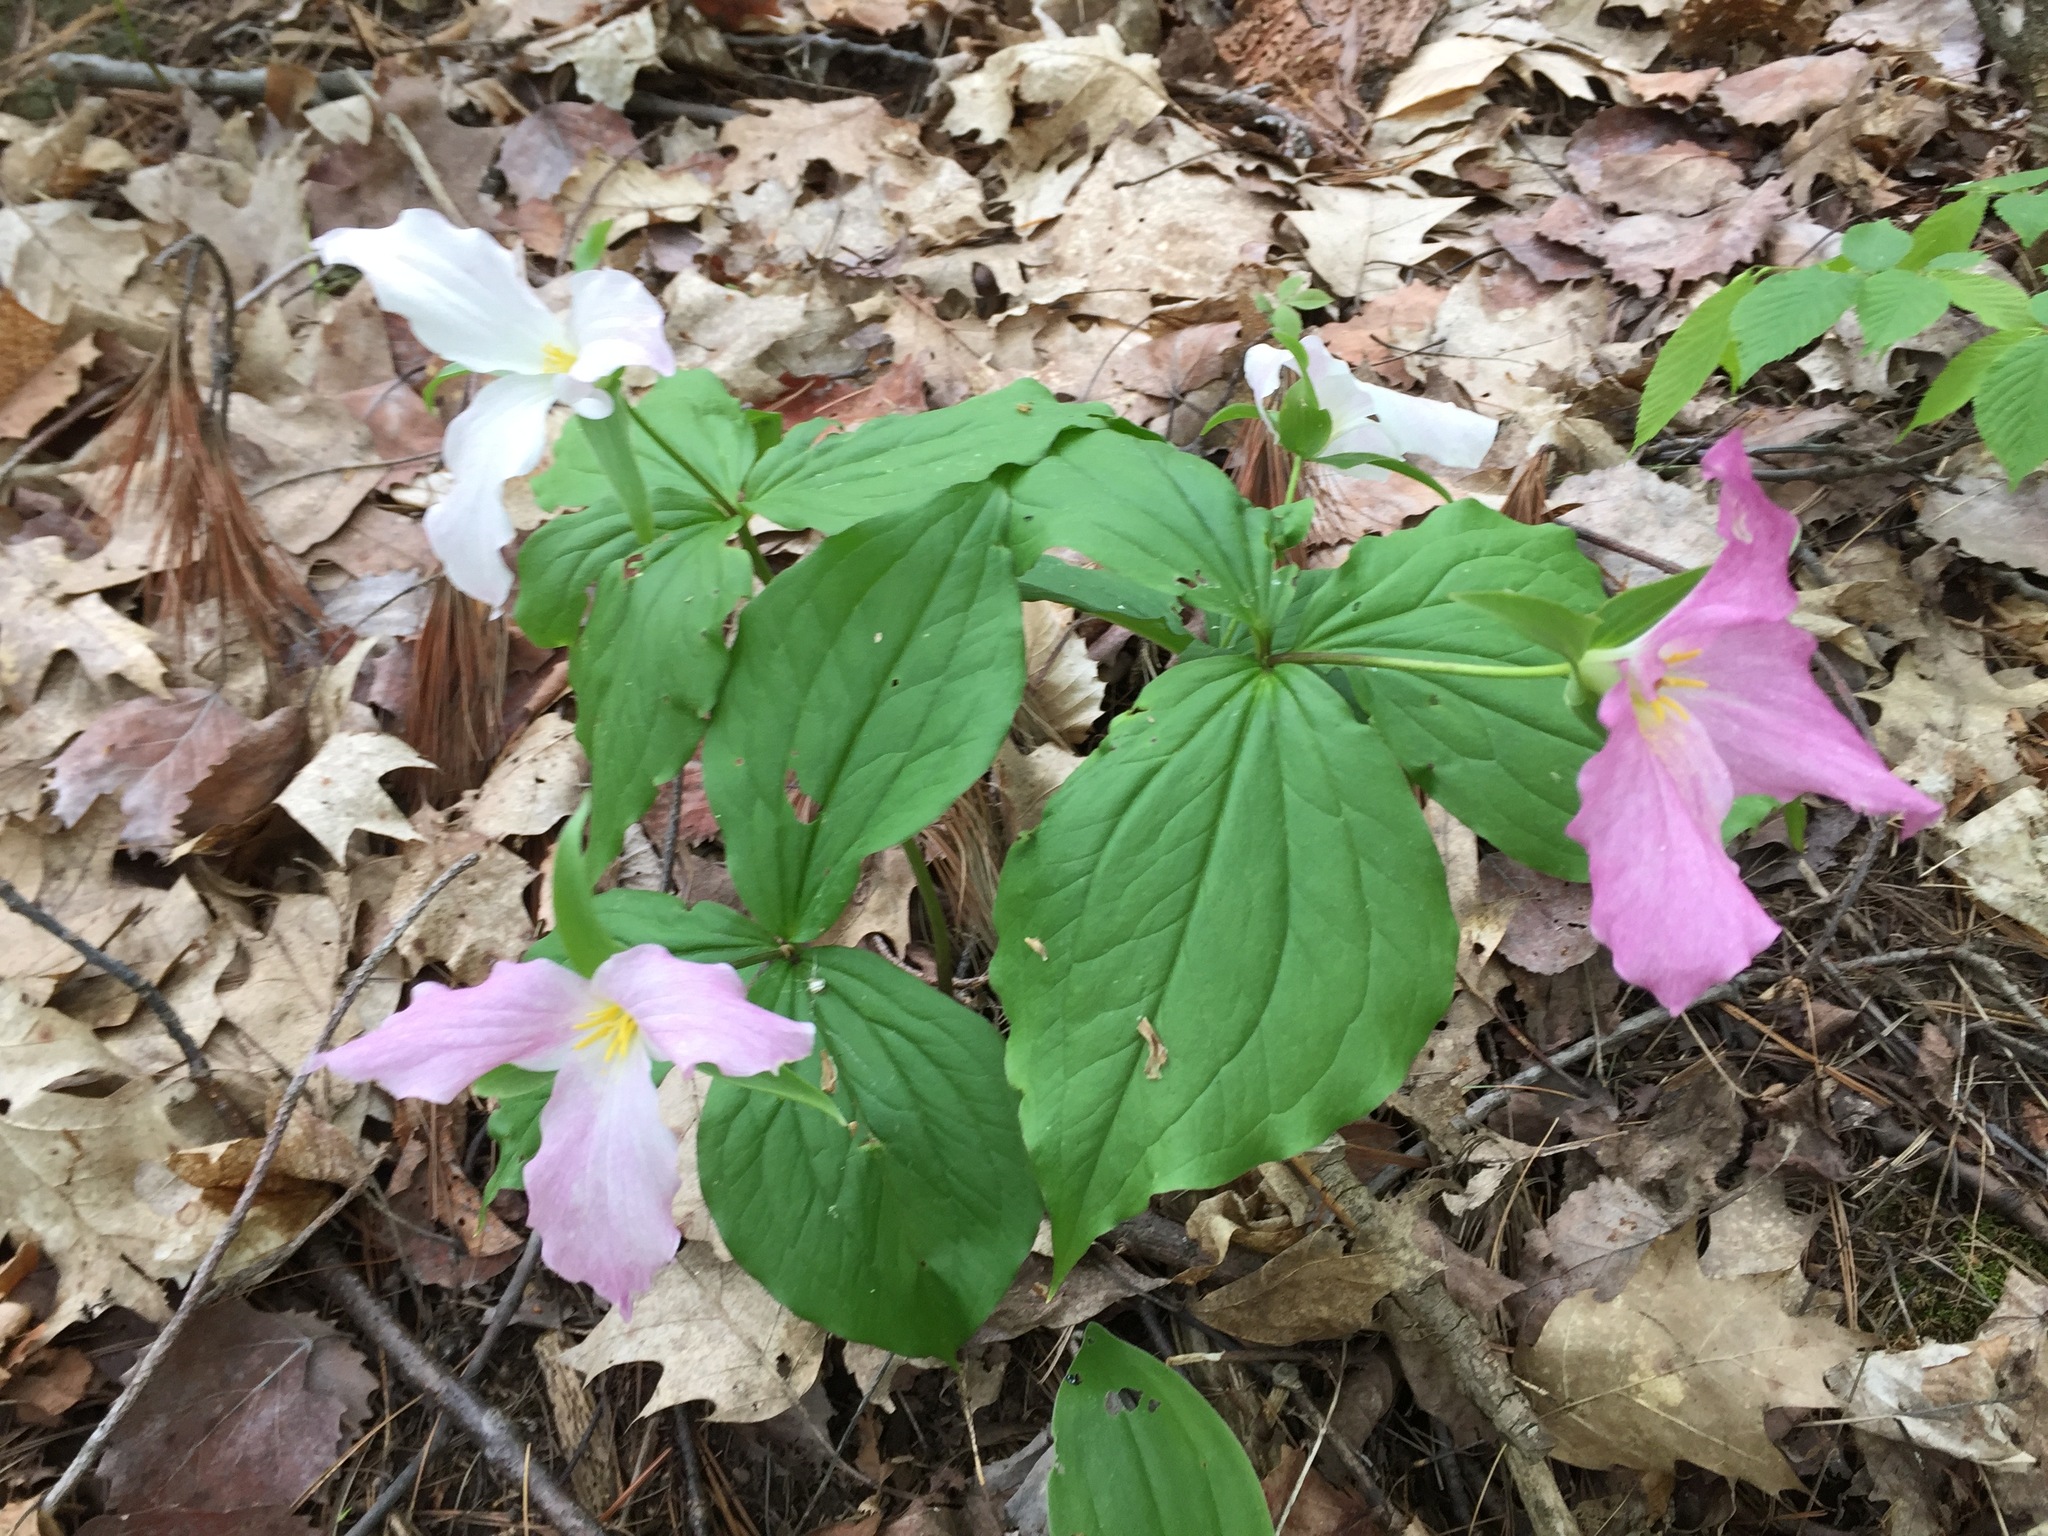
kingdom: Plantae
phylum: Tracheophyta
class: Liliopsida
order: Liliales
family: Melanthiaceae
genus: Trillium
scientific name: Trillium grandiflorum
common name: Great white trillium
